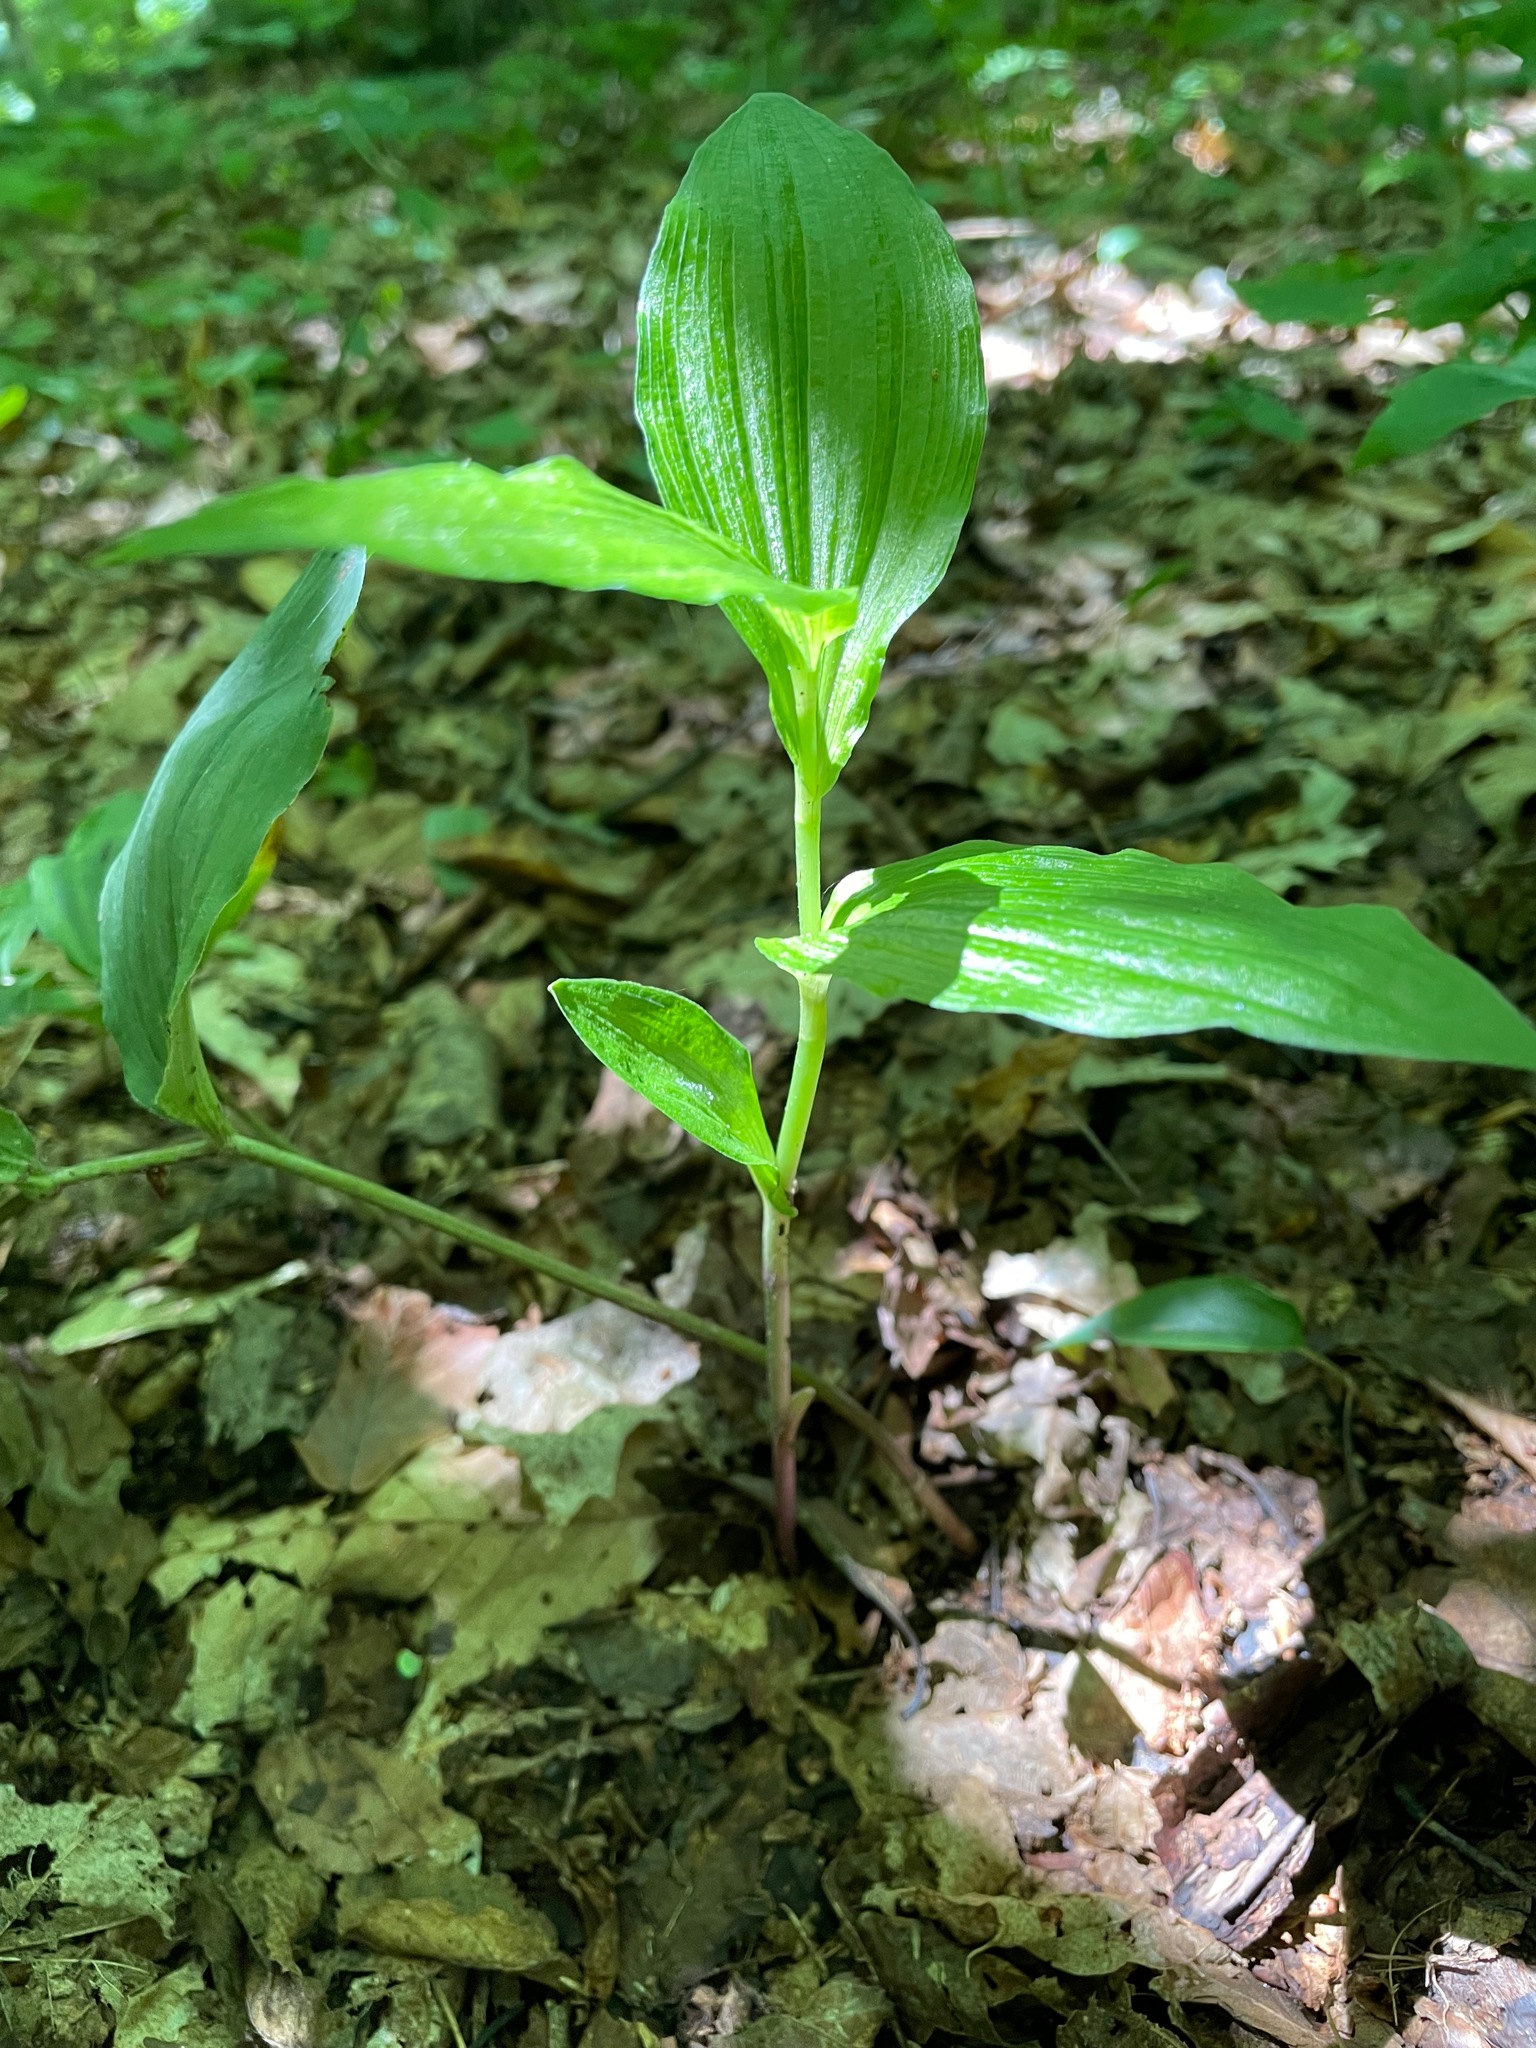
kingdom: Plantae
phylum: Tracheophyta
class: Liliopsida
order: Asparagales
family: Orchidaceae
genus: Epipactis
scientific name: Epipactis helleborine
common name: Broad-leaved helleborine
